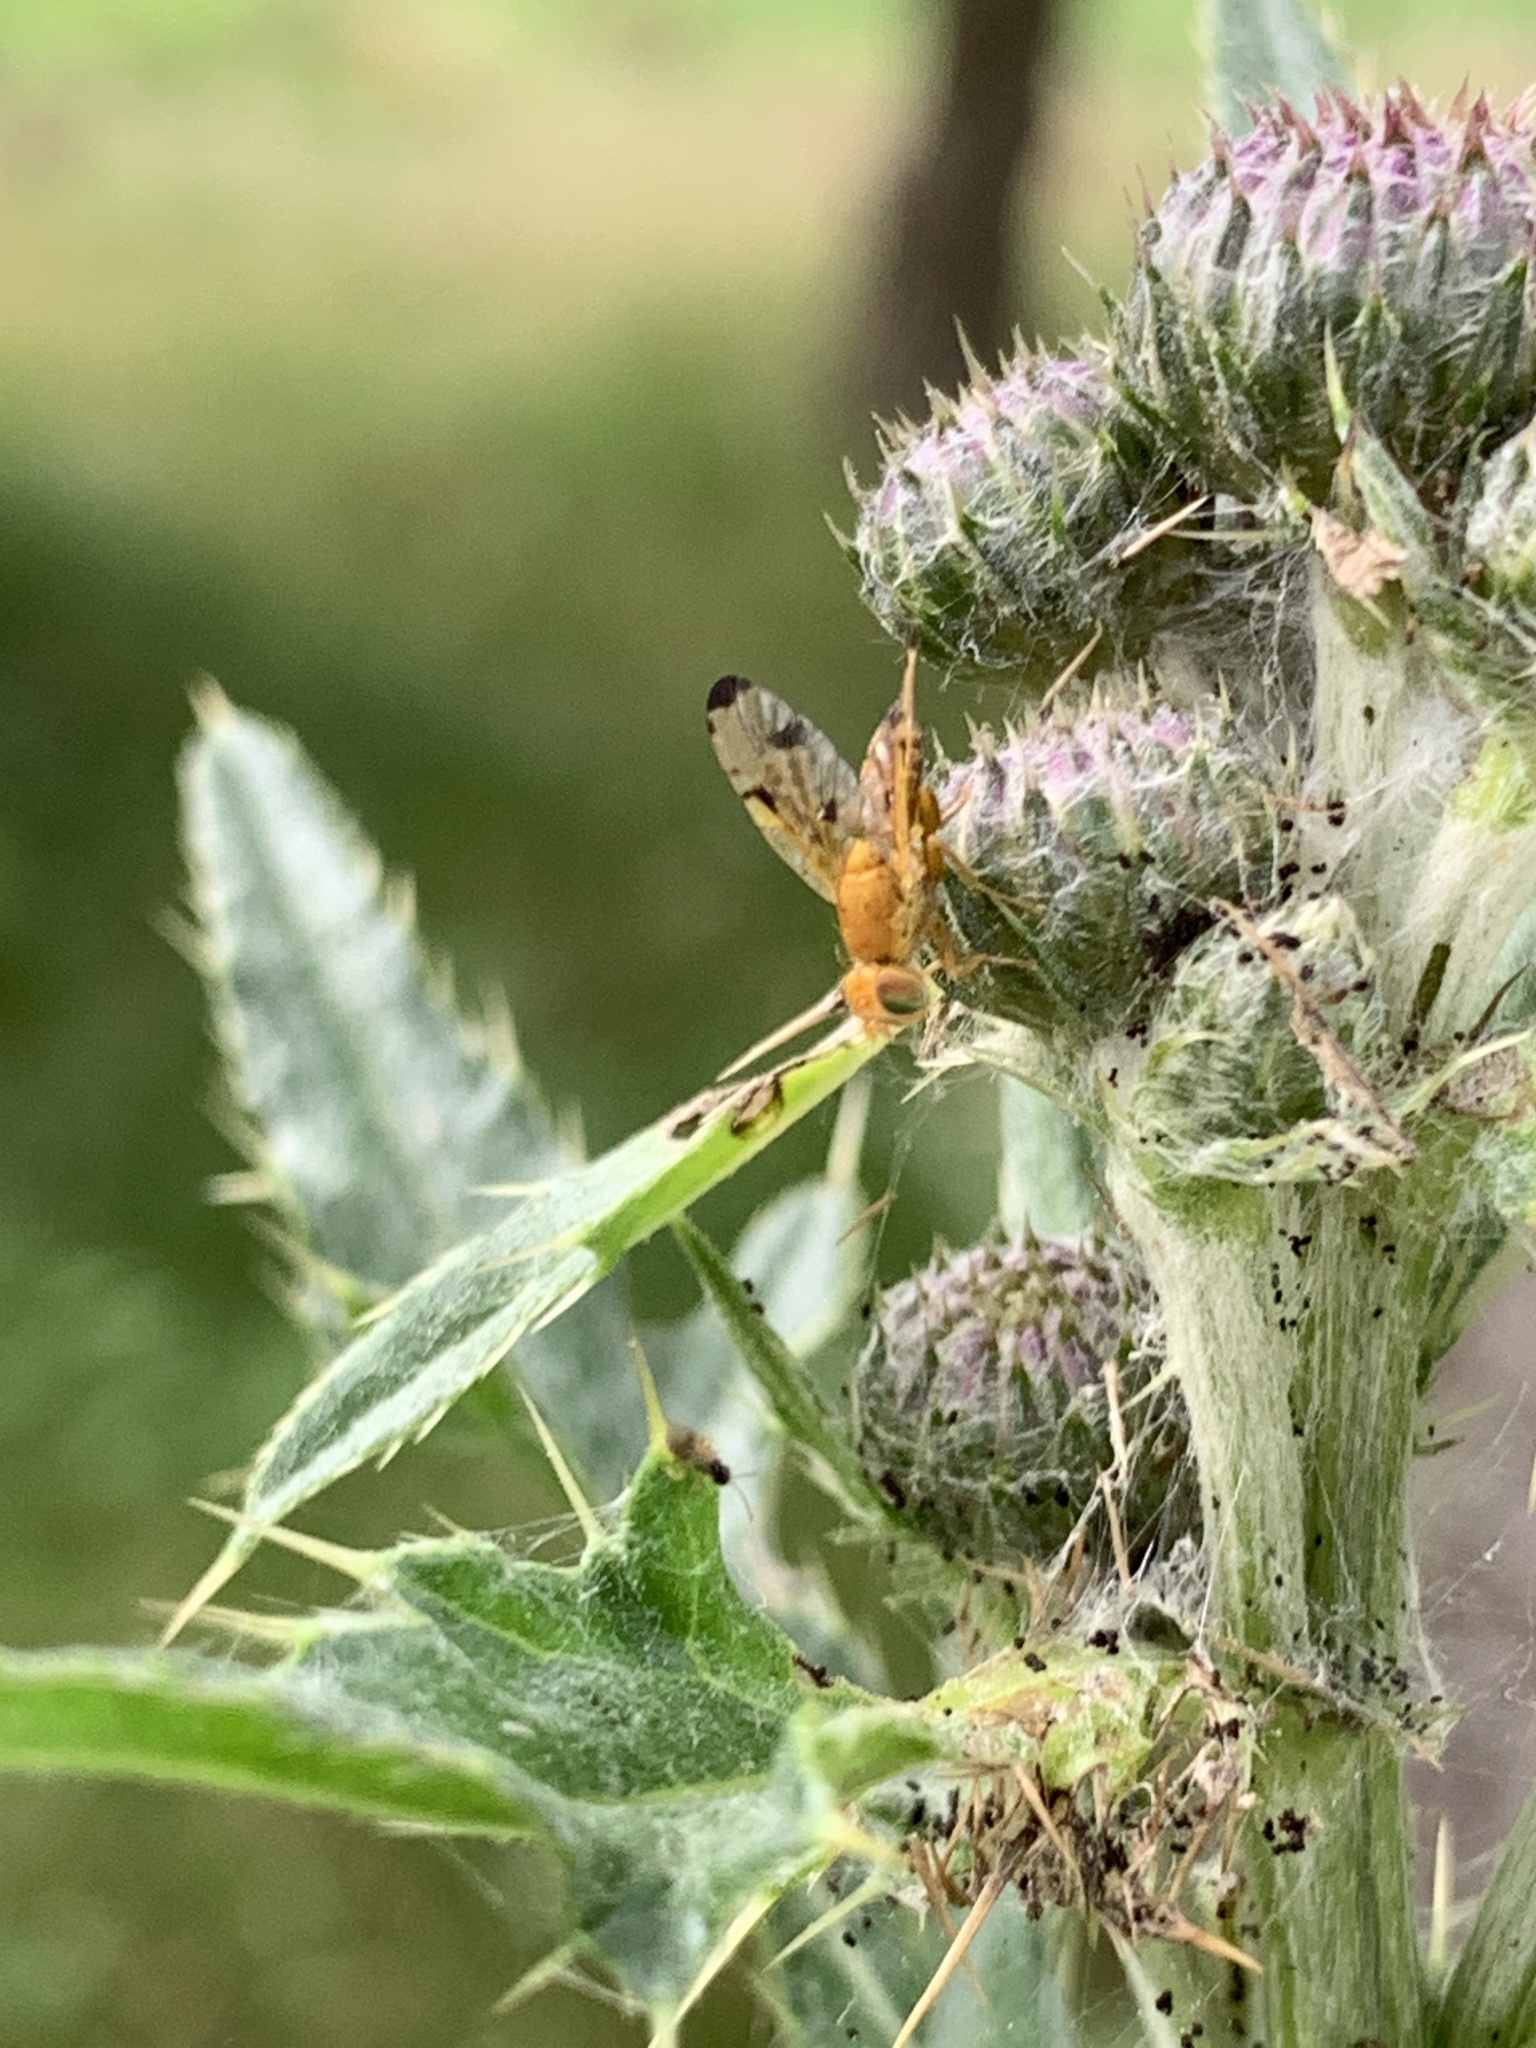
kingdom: Animalia
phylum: Arthropoda
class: Insecta
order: Diptera
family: Tephritidae
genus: Xyphosia
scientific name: Xyphosia miliaria
